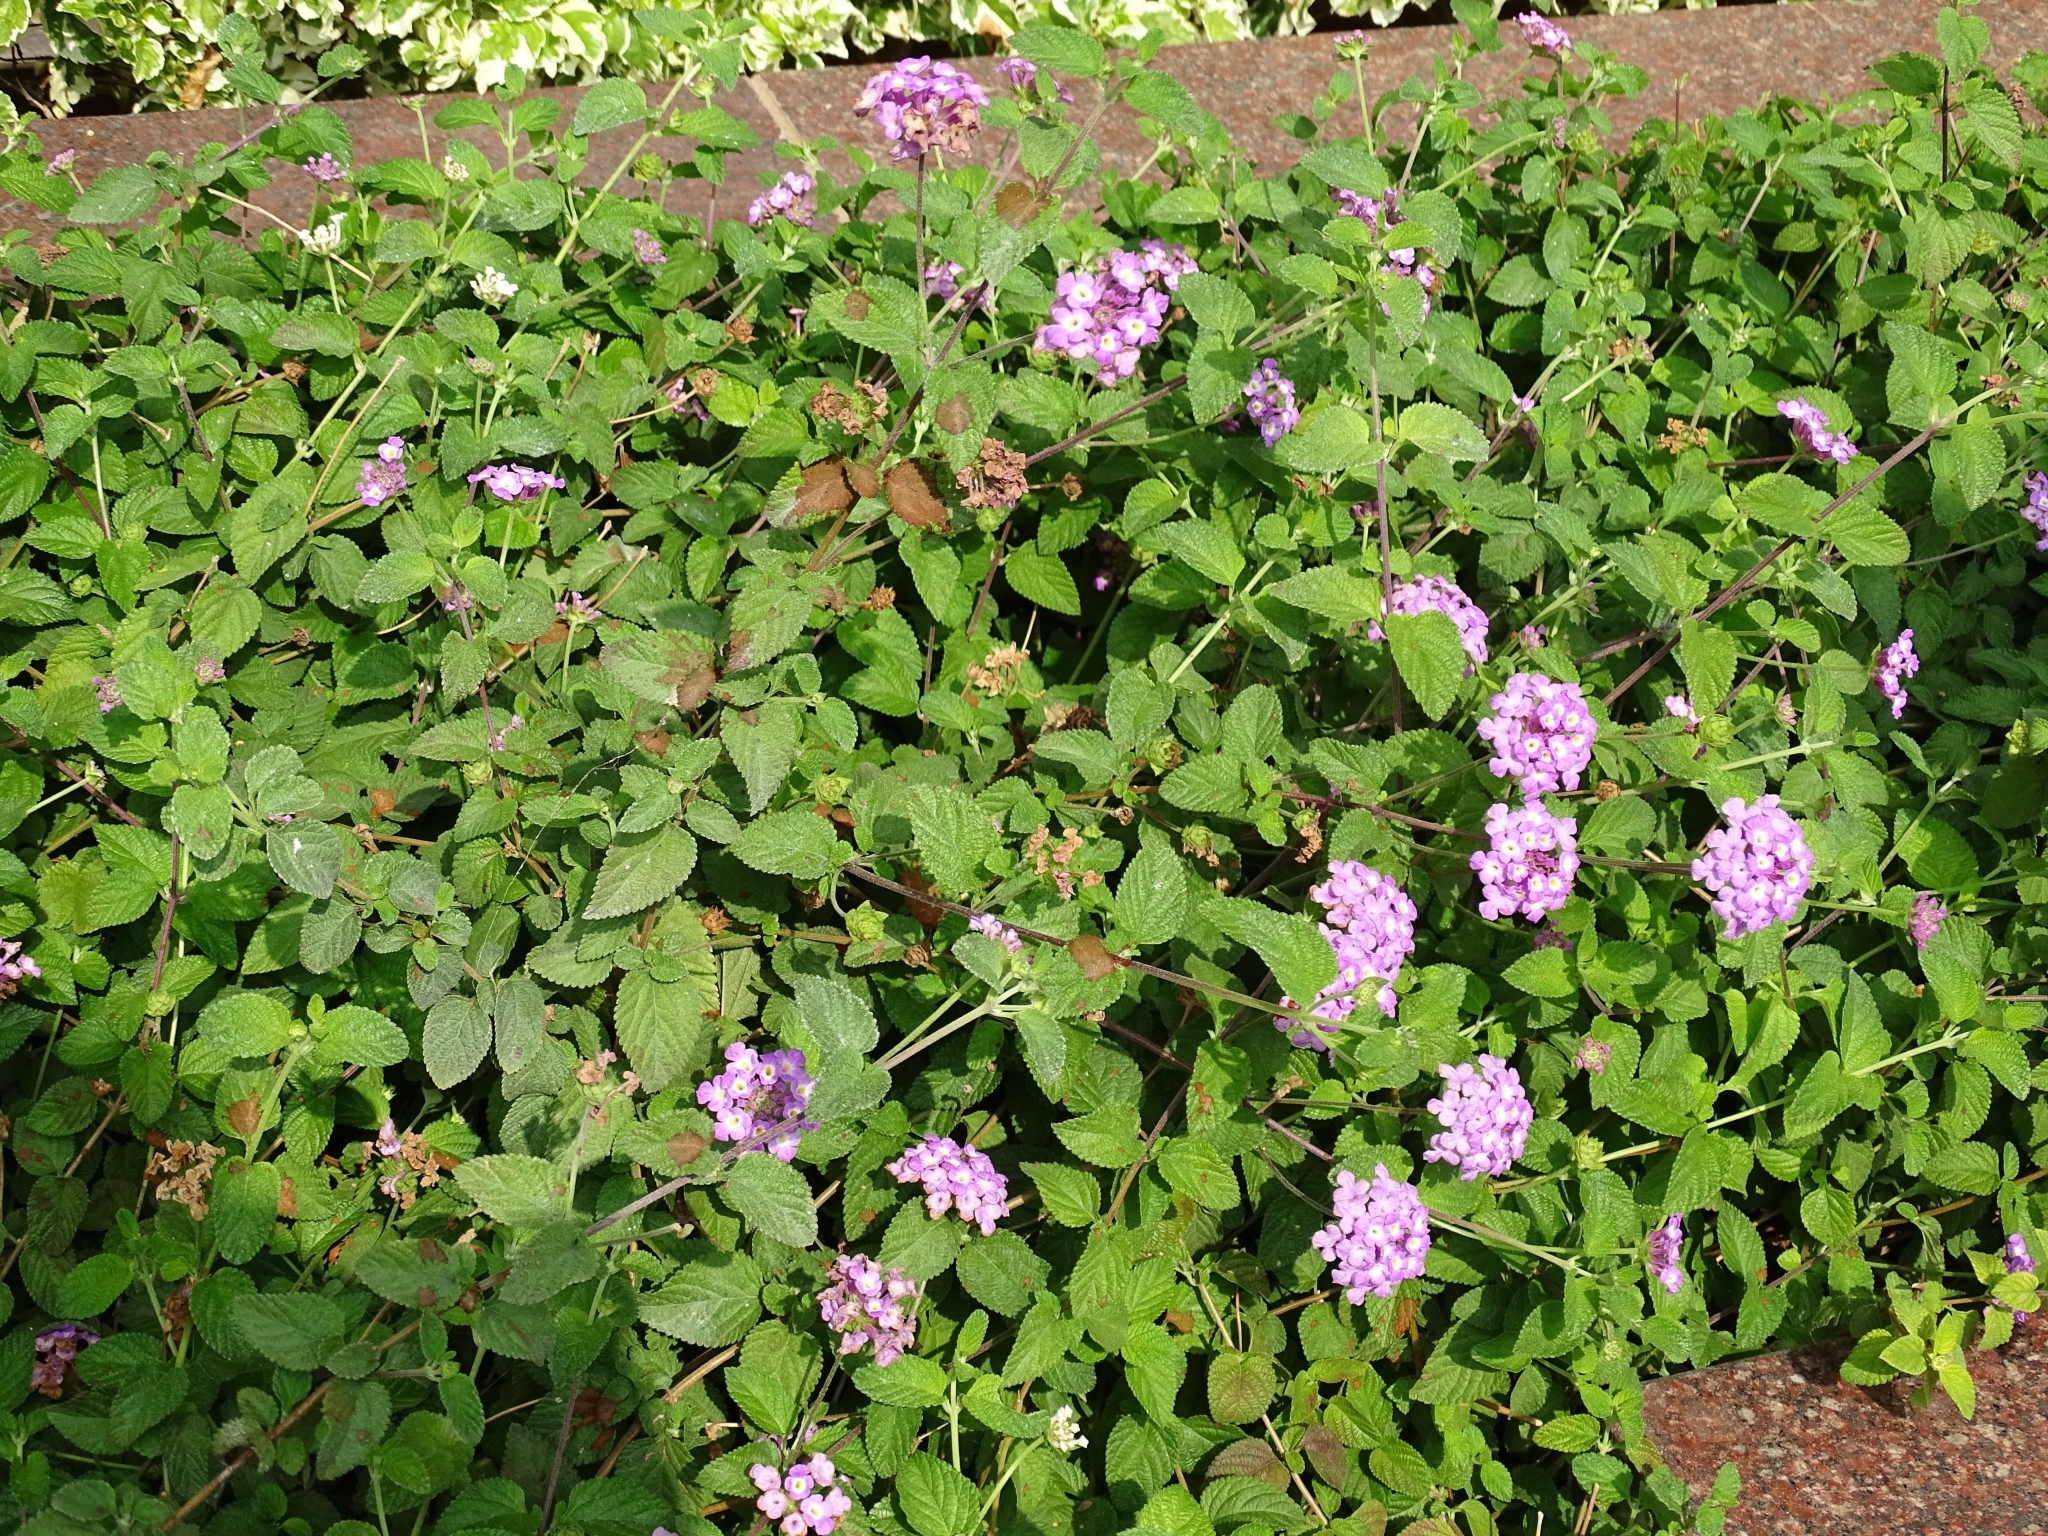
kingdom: Plantae
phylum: Tracheophyta
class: Magnoliopsida
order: Lamiales
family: Verbenaceae
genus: Lantana
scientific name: Lantana montevidensis
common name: Trailing shrubverbena
